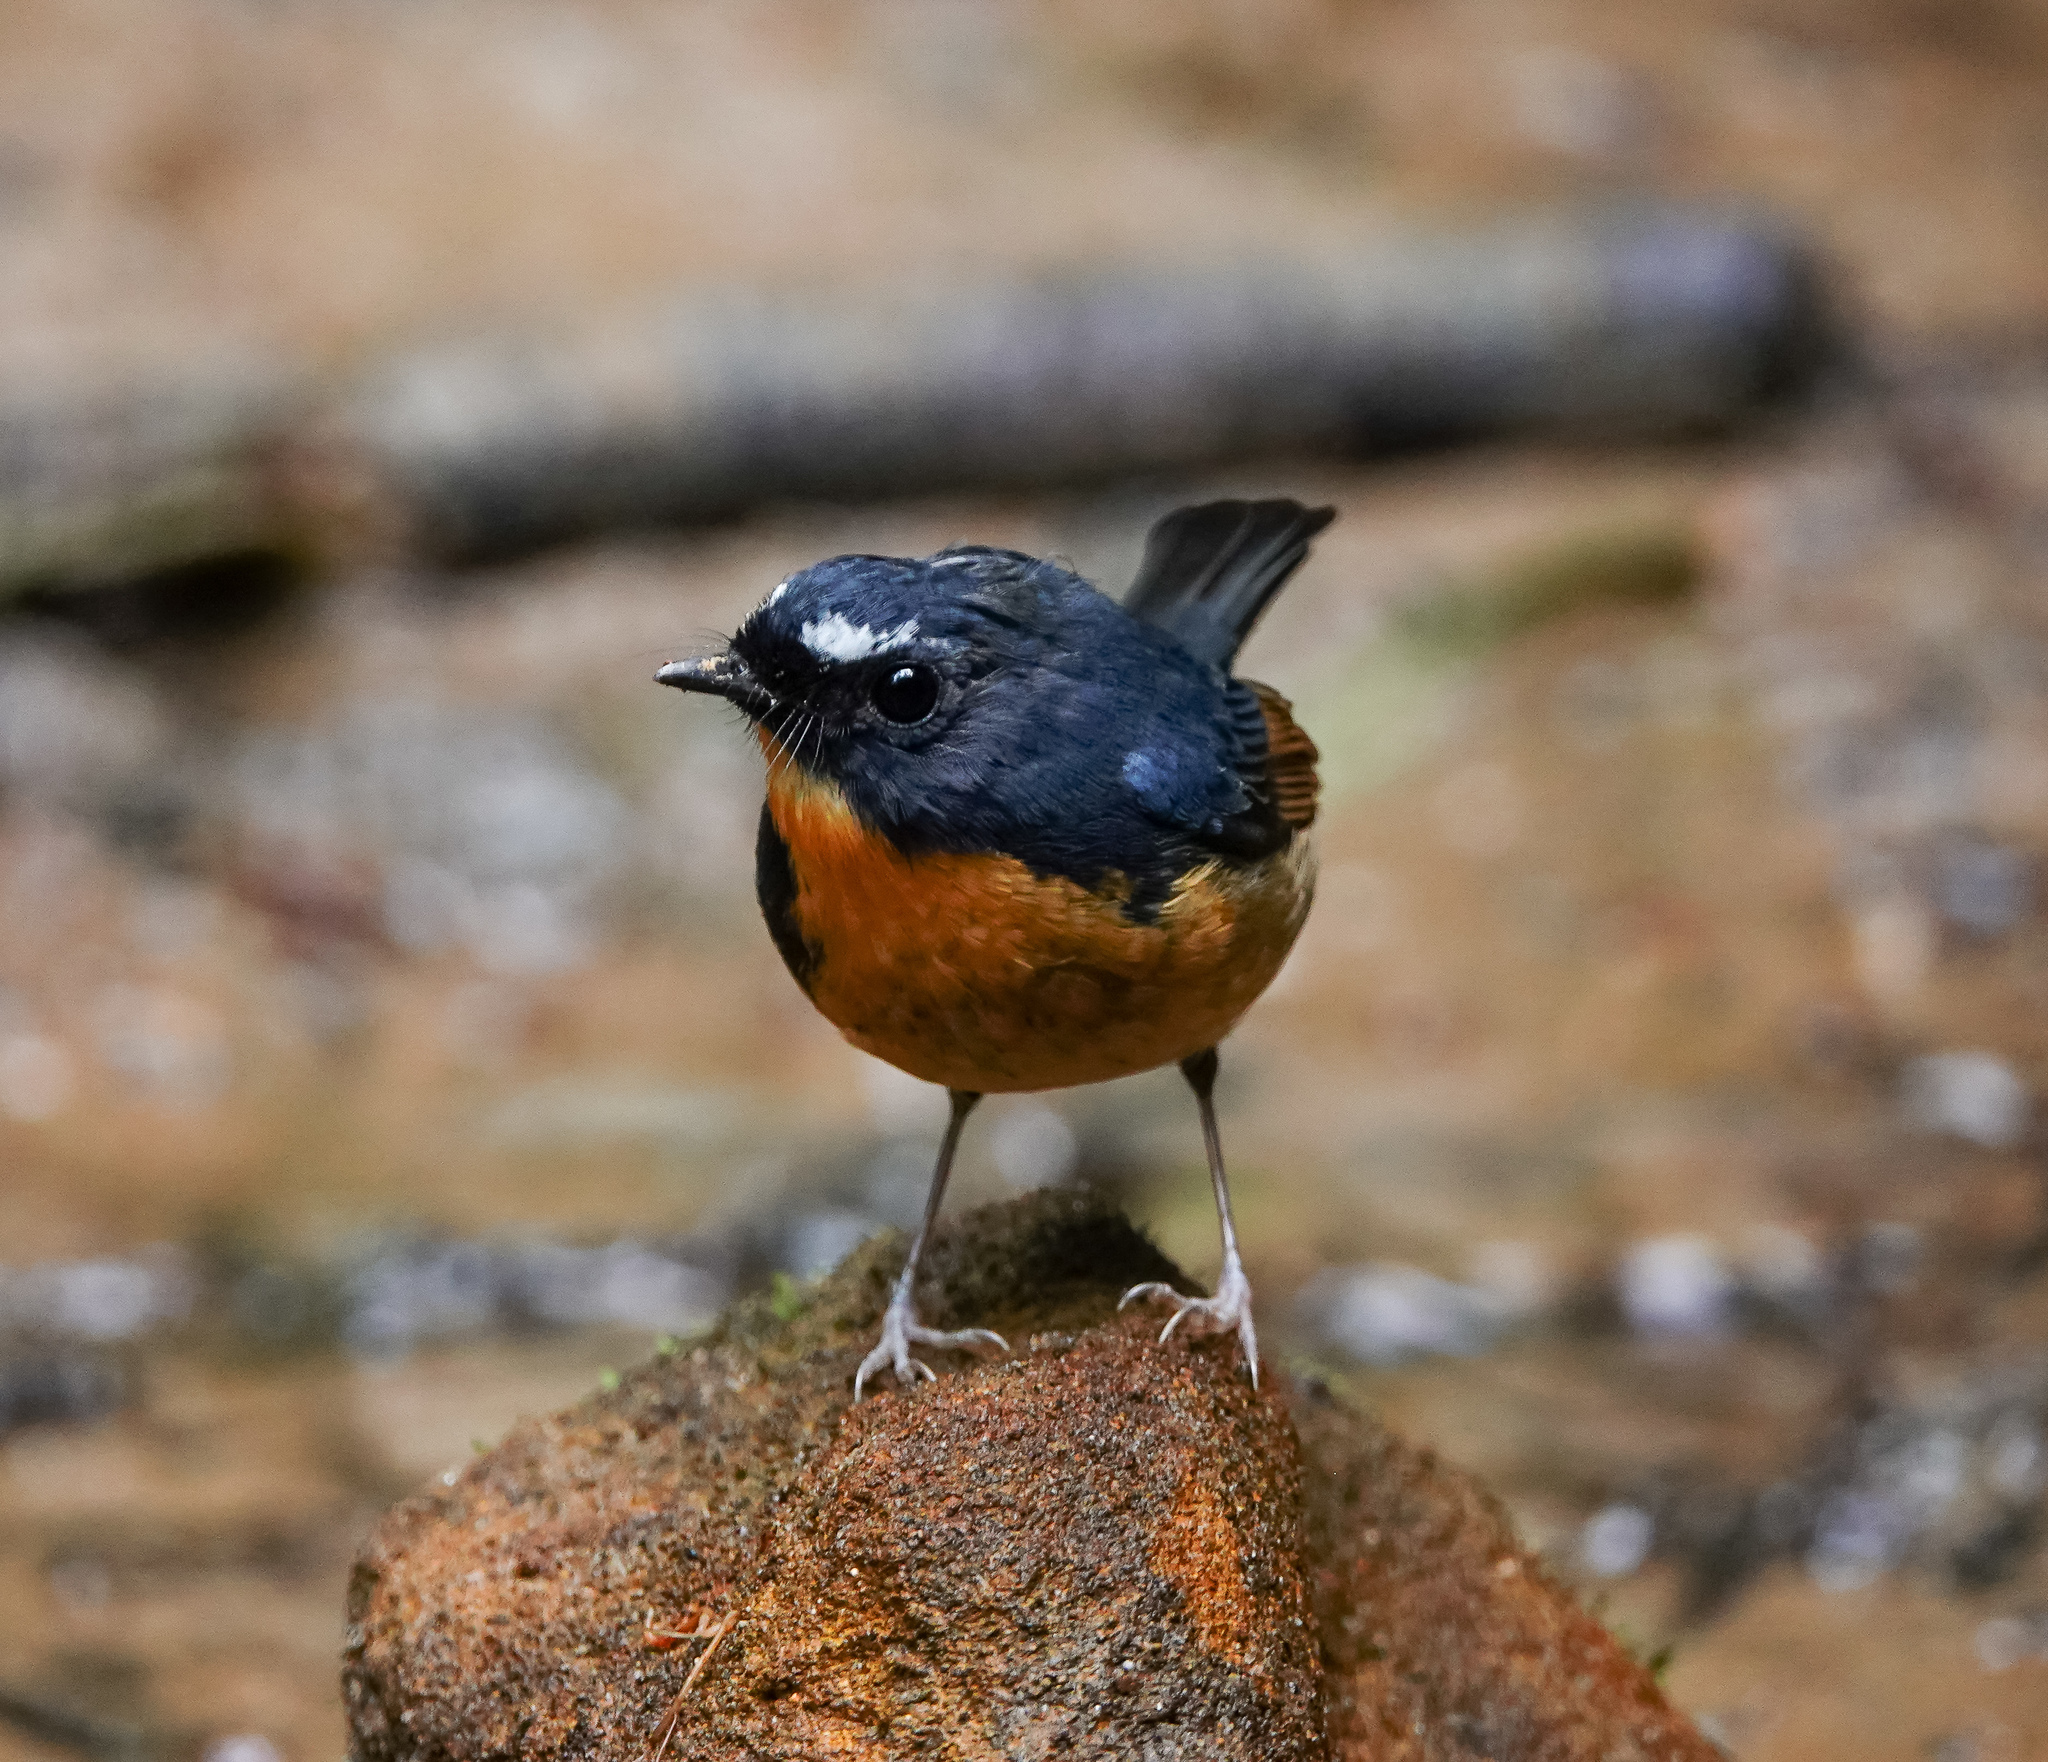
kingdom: Animalia
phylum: Chordata
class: Aves
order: Passeriformes
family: Muscicapidae
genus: Ficedula
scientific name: Ficedula hyperythra
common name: Snowy-browed flycatcher
